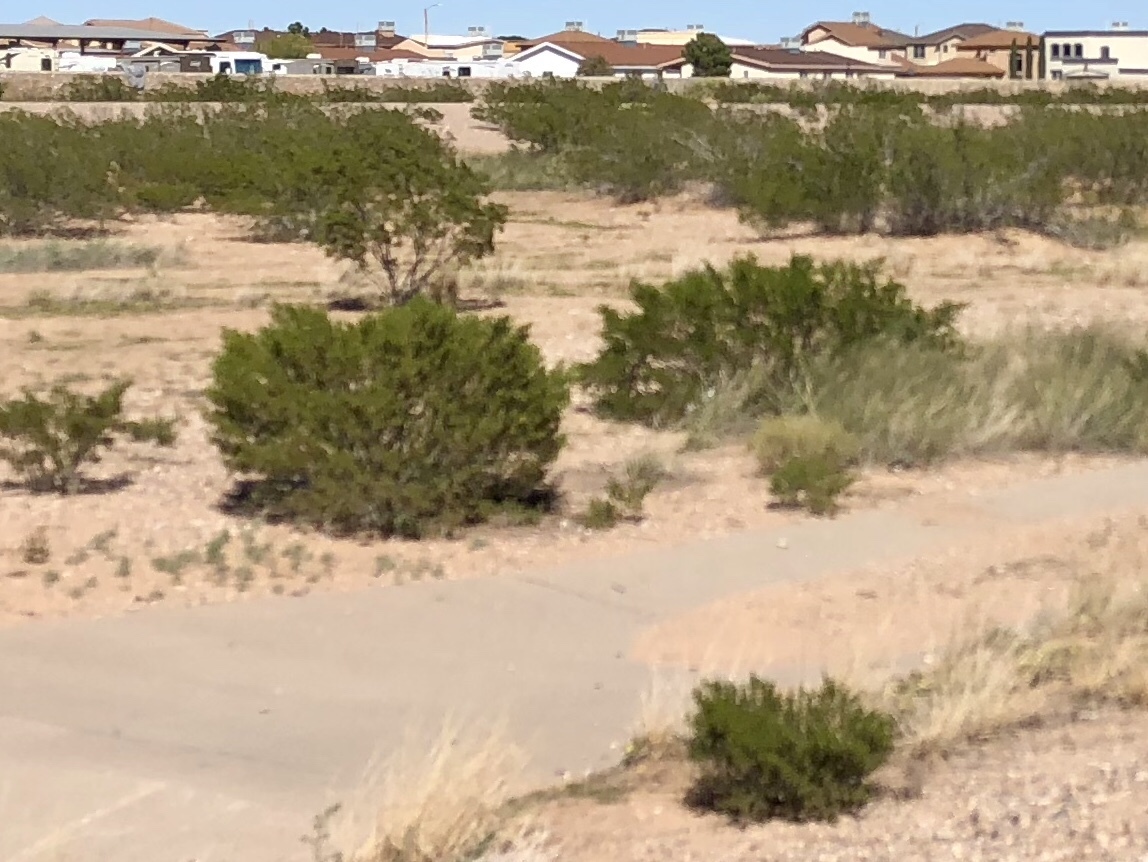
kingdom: Plantae
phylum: Tracheophyta
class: Magnoliopsida
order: Zygophyllales
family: Zygophyllaceae
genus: Larrea
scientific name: Larrea tridentata
